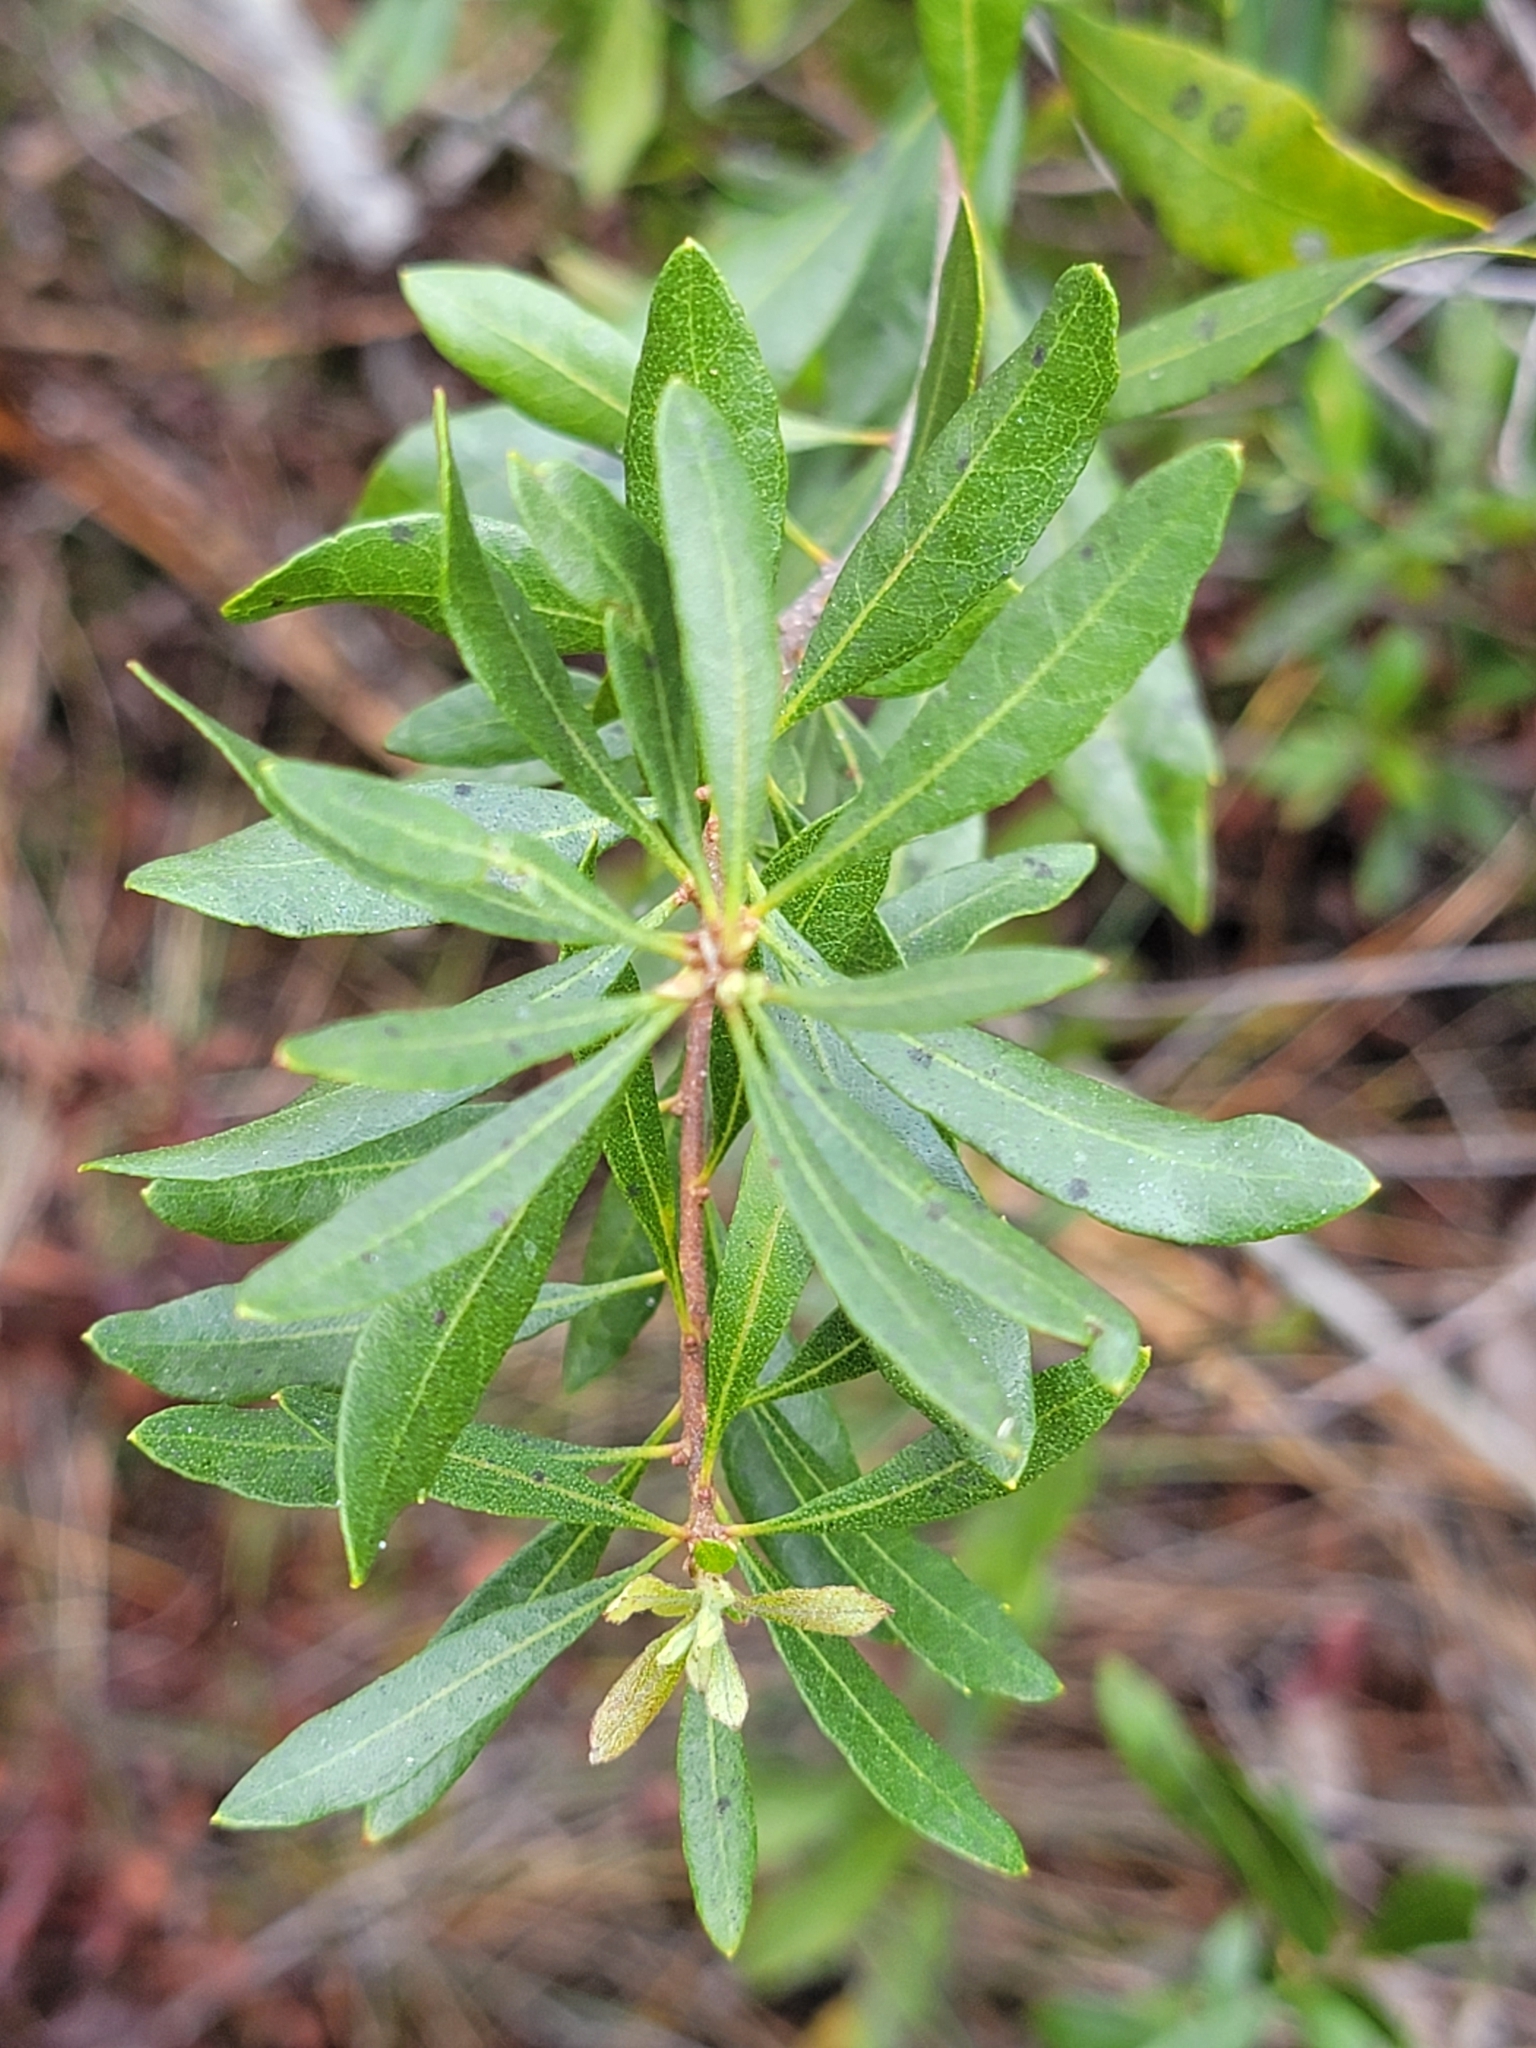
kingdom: Plantae
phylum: Tracheophyta
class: Magnoliopsida
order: Fagales
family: Myricaceae
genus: Morella
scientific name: Morella cerifera
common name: Wax myrtle
